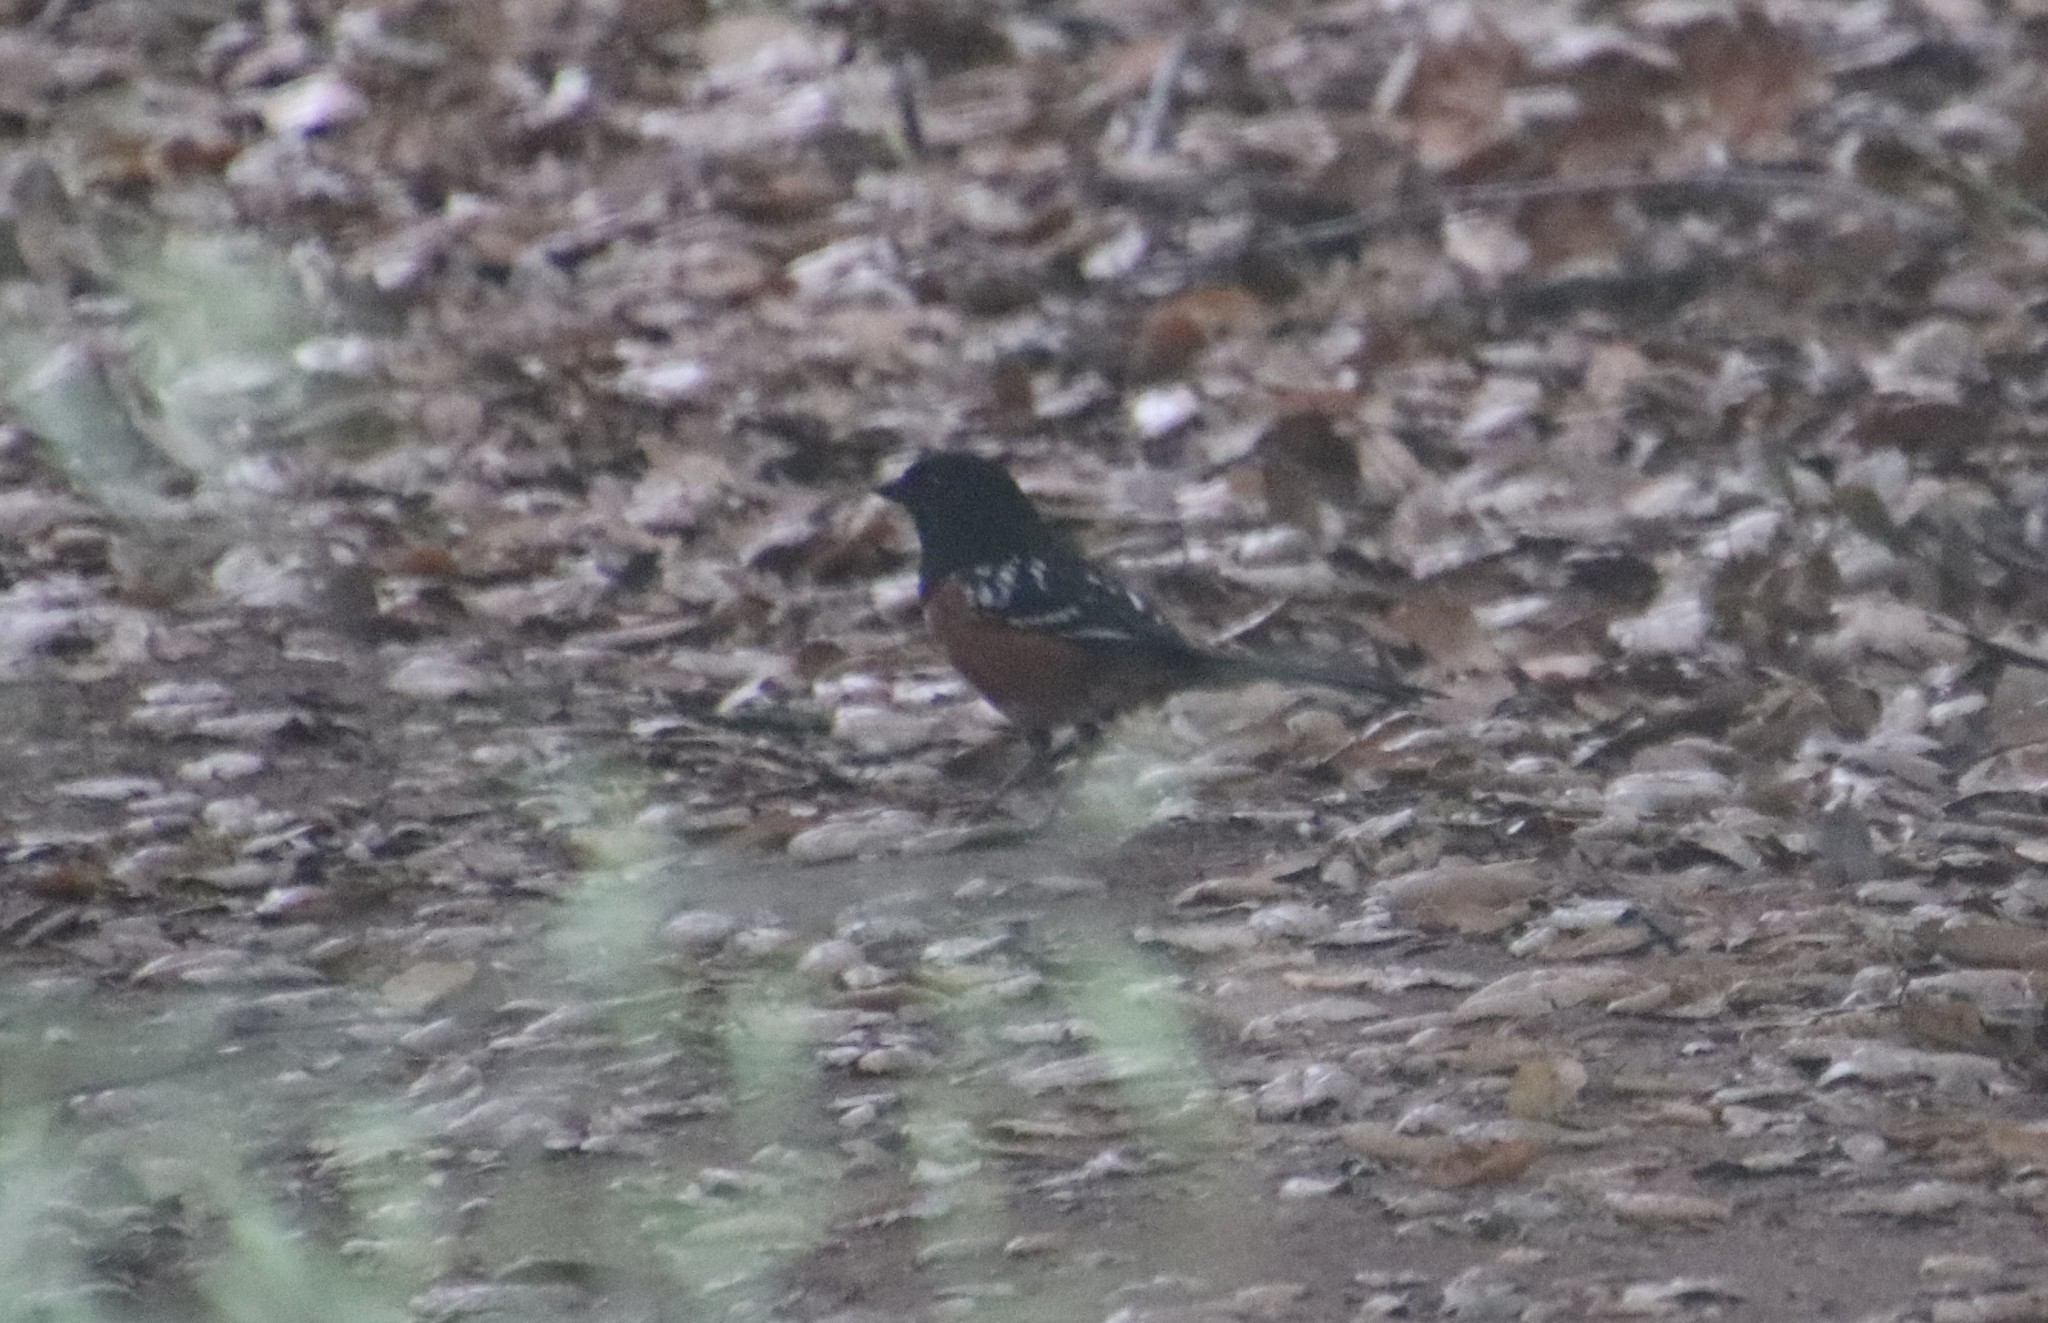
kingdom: Animalia
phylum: Chordata
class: Aves
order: Passeriformes
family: Passerellidae
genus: Pipilo
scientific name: Pipilo maculatus
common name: Spotted towhee
